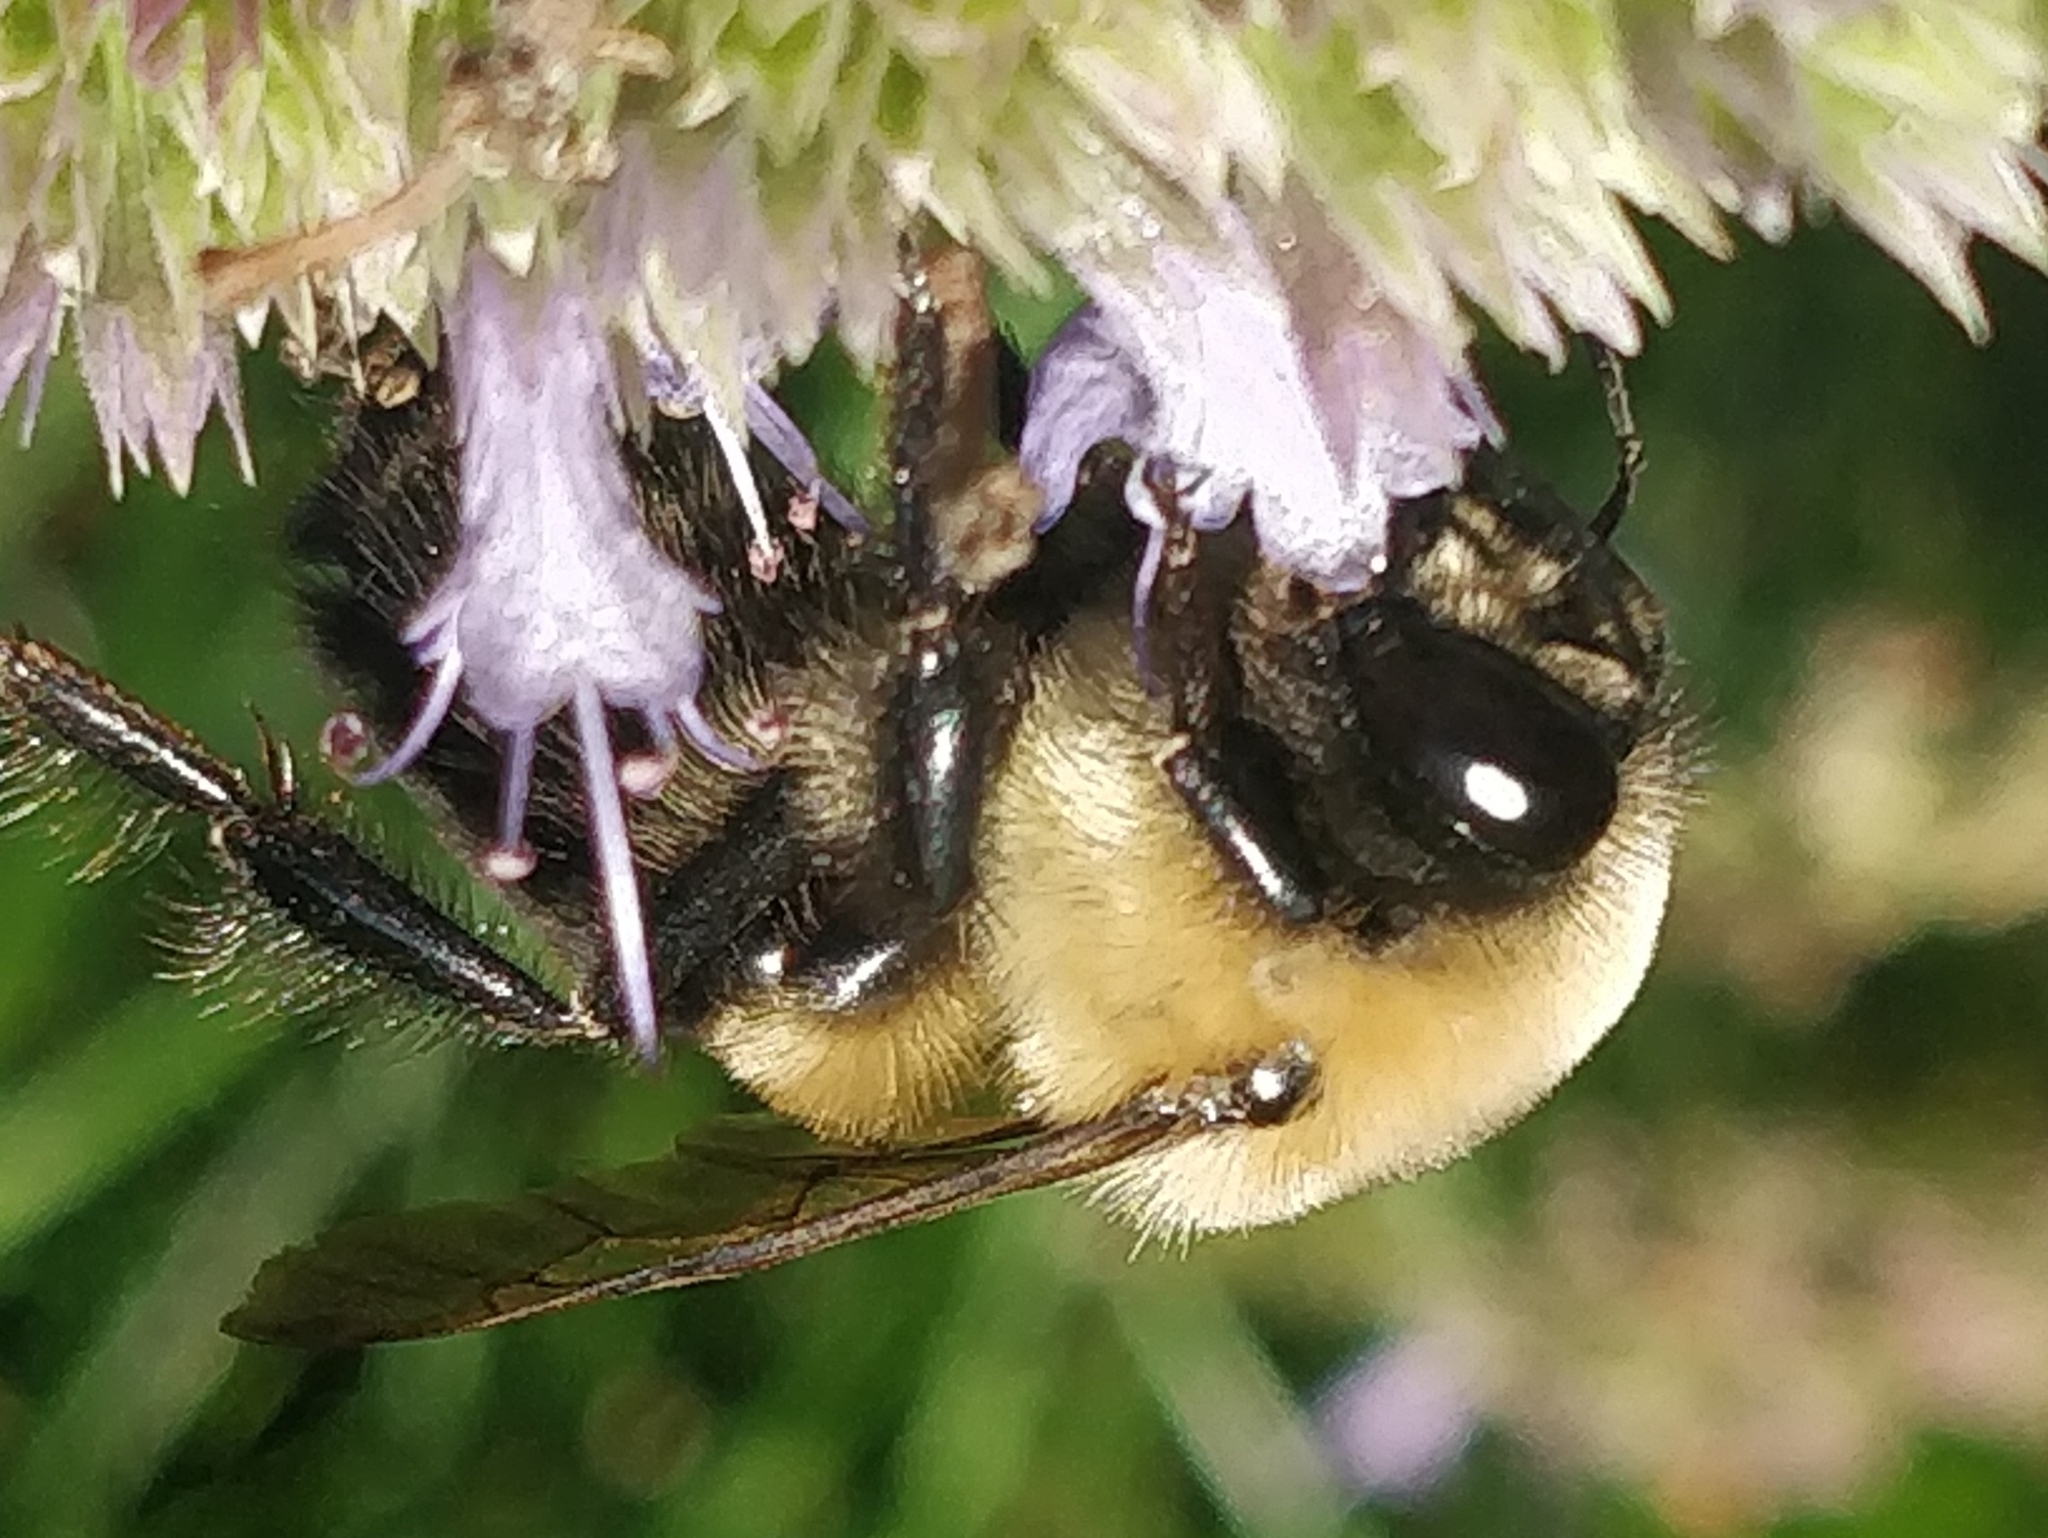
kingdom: Animalia
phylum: Arthropoda
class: Insecta
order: Hymenoptera
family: Apidae
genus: Bombus
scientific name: Bombus griseocollis
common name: Brown-belted bumble bee
